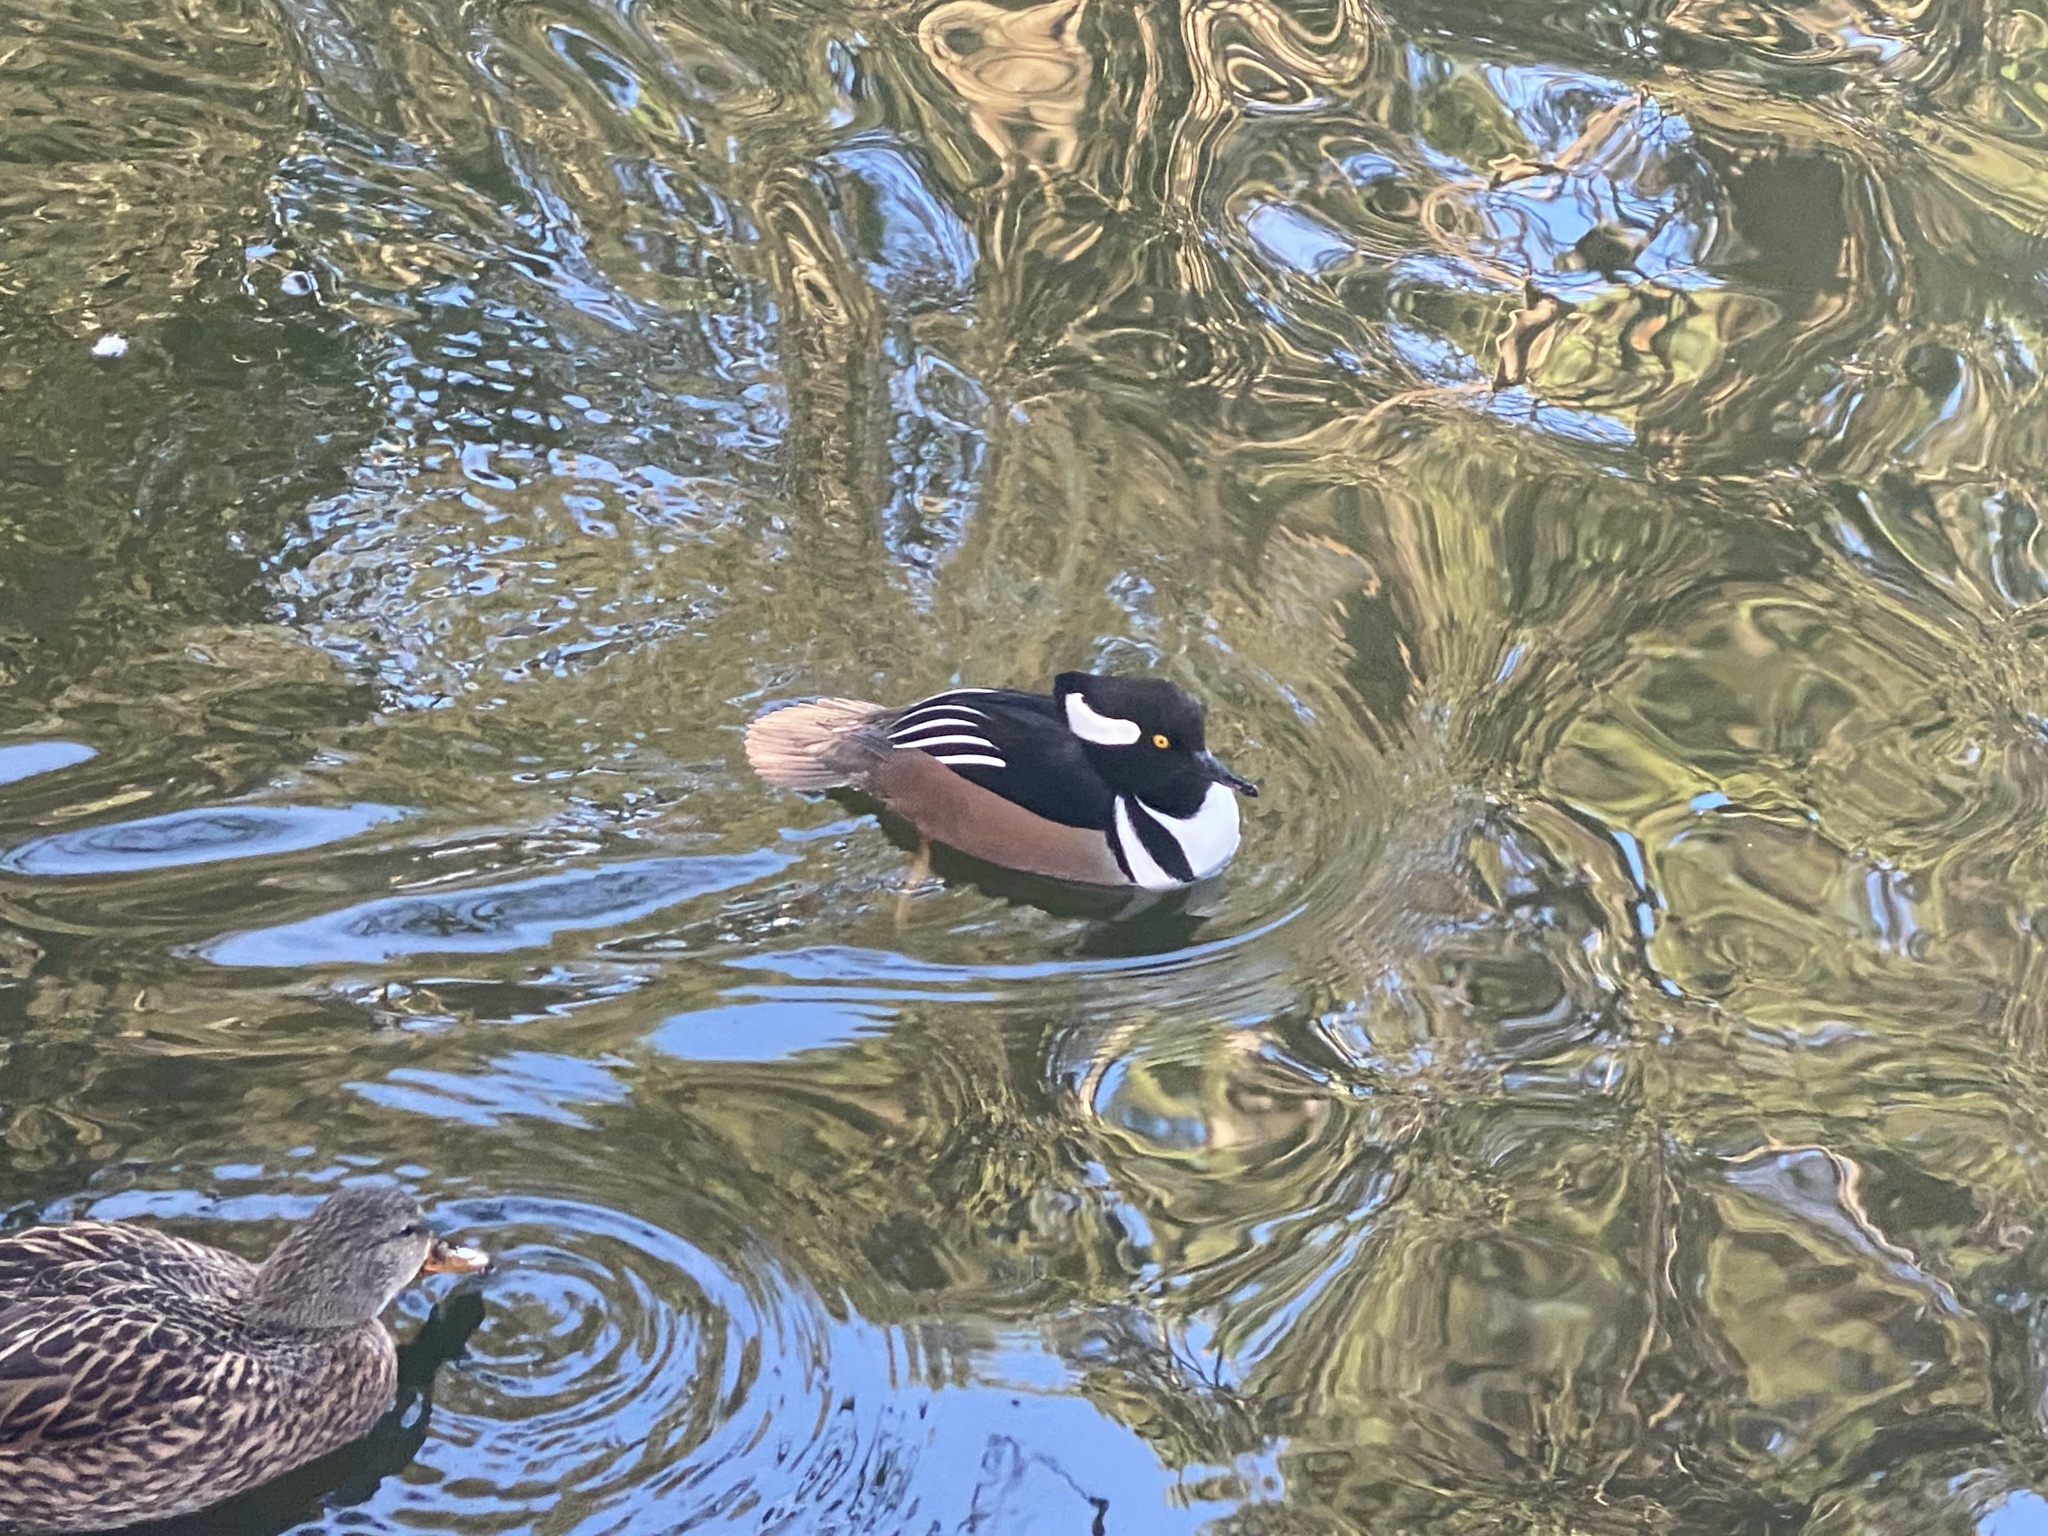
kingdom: Animalia
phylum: Chordata
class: Aves
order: Anseriformes
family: Anatidae
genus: Lophodytes
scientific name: Lophodytes cucullatus
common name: Hooded merganser
